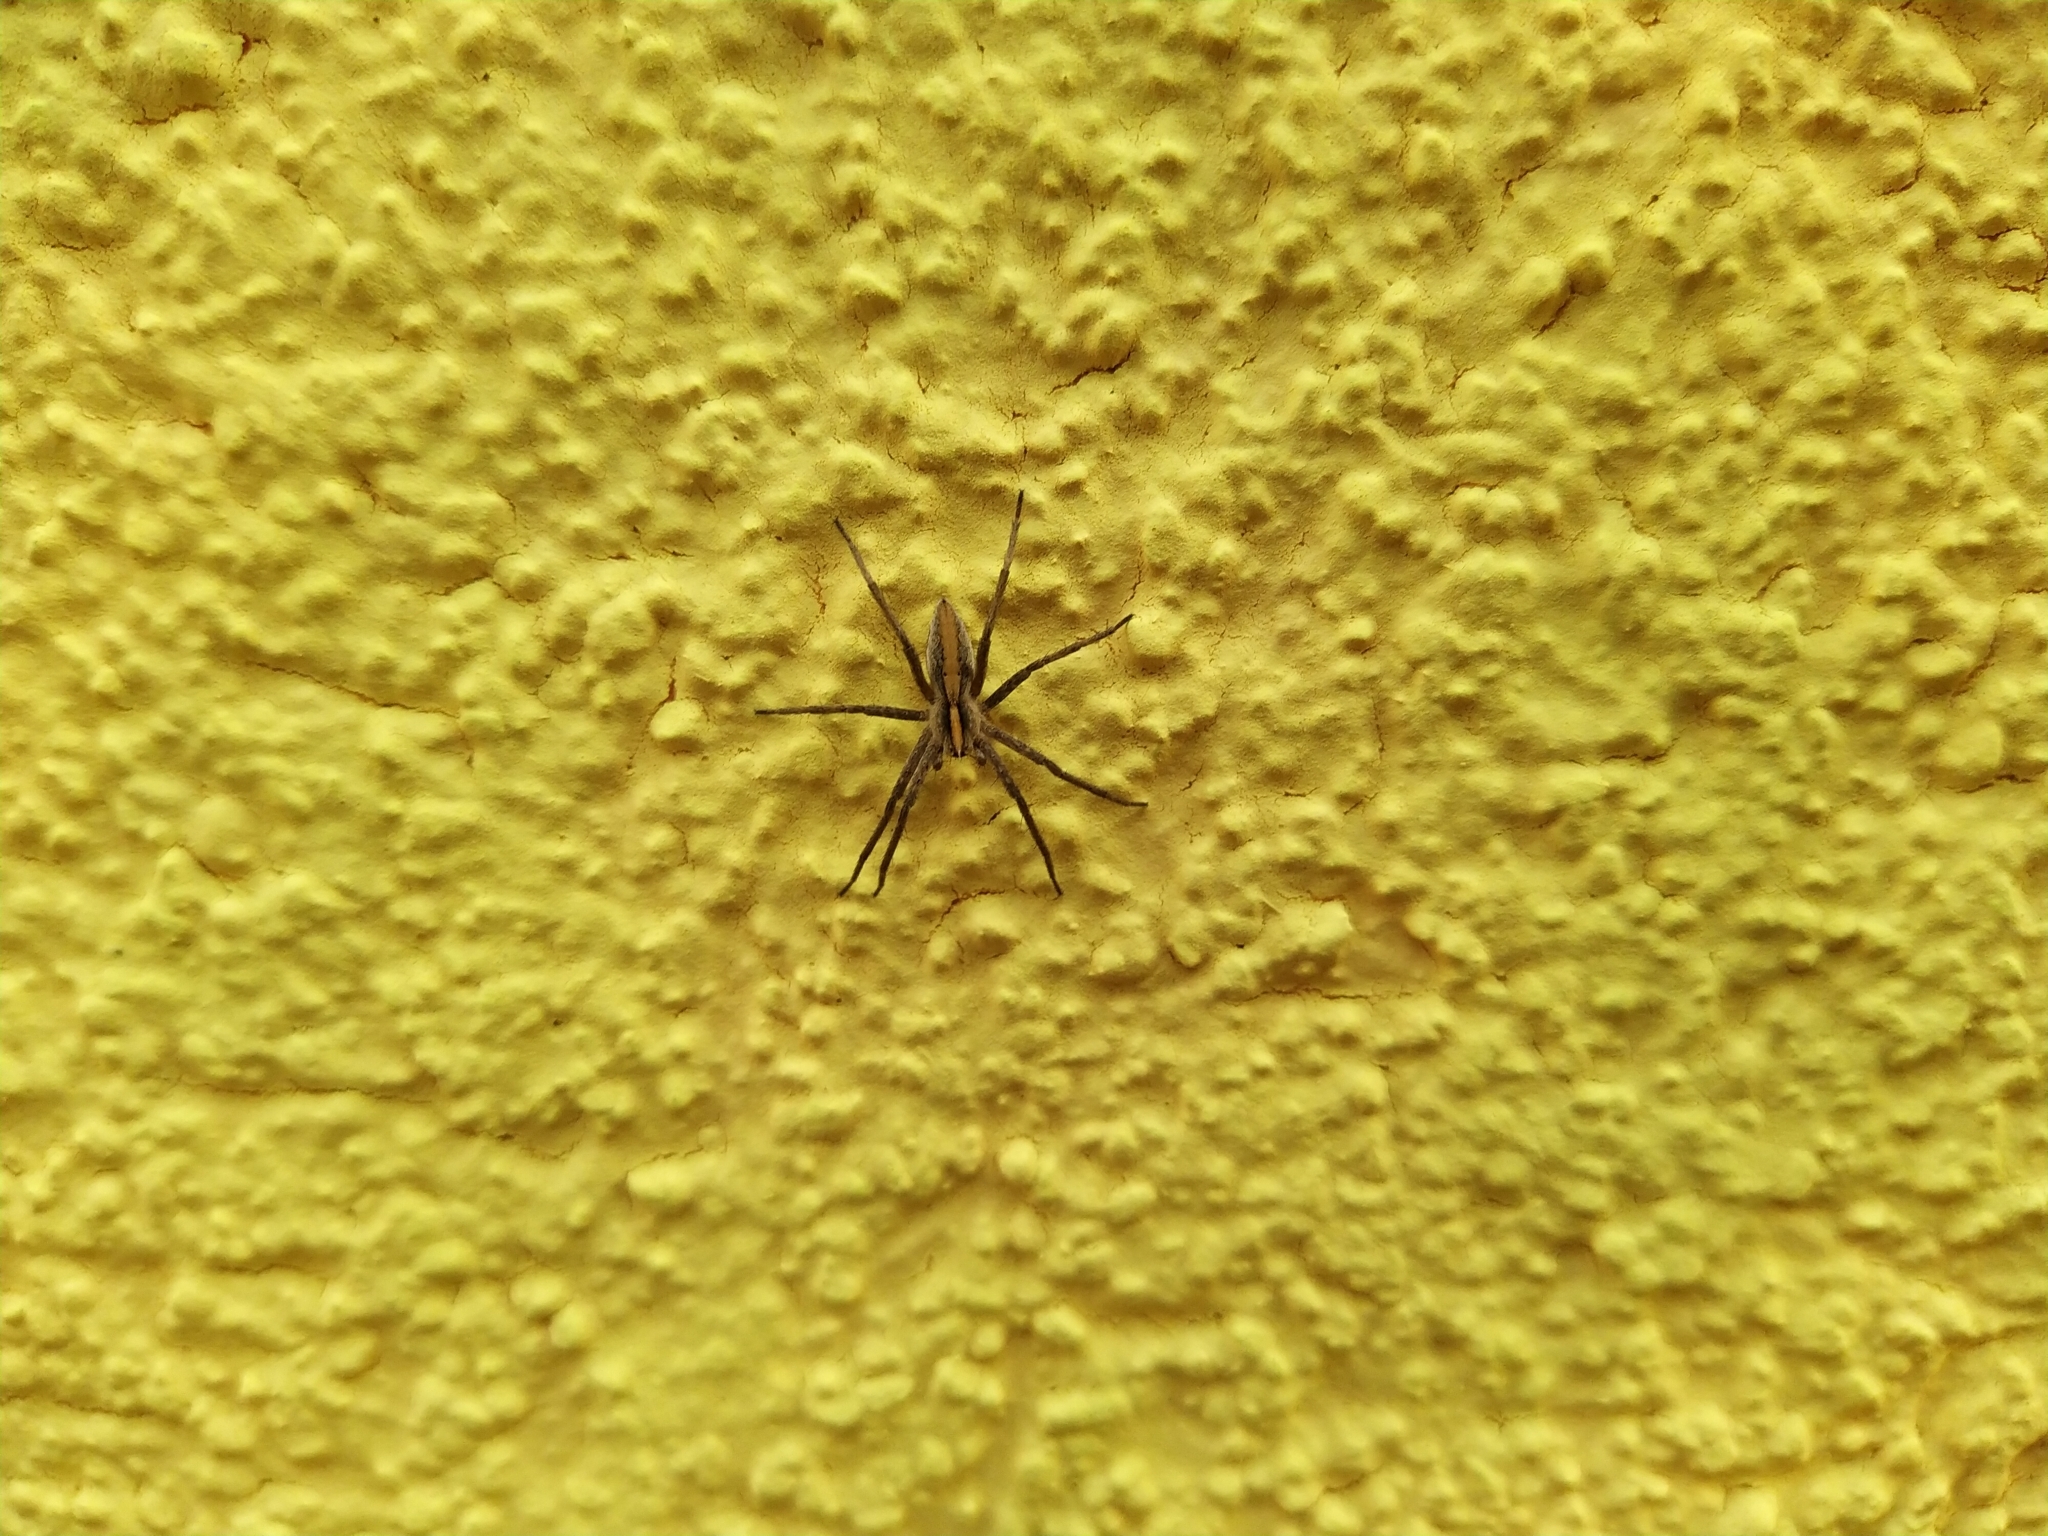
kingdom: Animalia
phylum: Arthropoda
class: Arachnida
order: Araneae
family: Pisauridae
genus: Pisaura
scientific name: Pisaura mirabilis
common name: Tent spider
